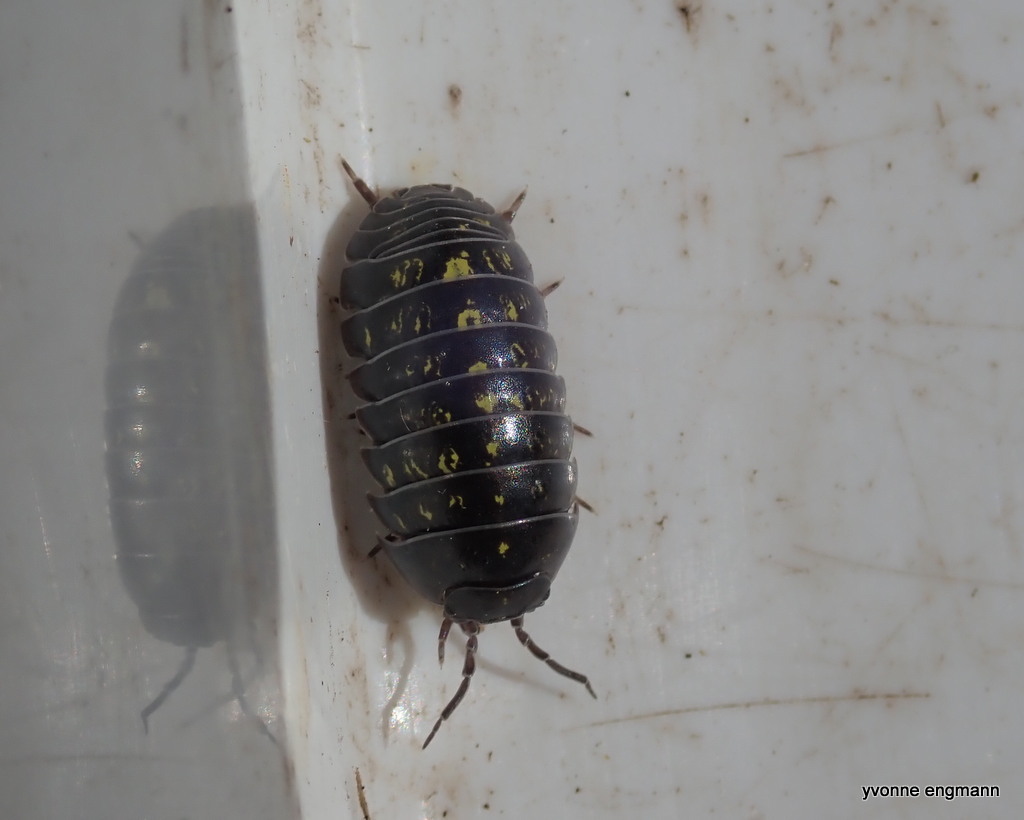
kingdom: Animalia
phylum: Arthropoda
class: Malacostraca
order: Isopoda
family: Armadillidiidae
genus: Armadillidium
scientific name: Armadillidium vulgare
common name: Common pill woodlouse
